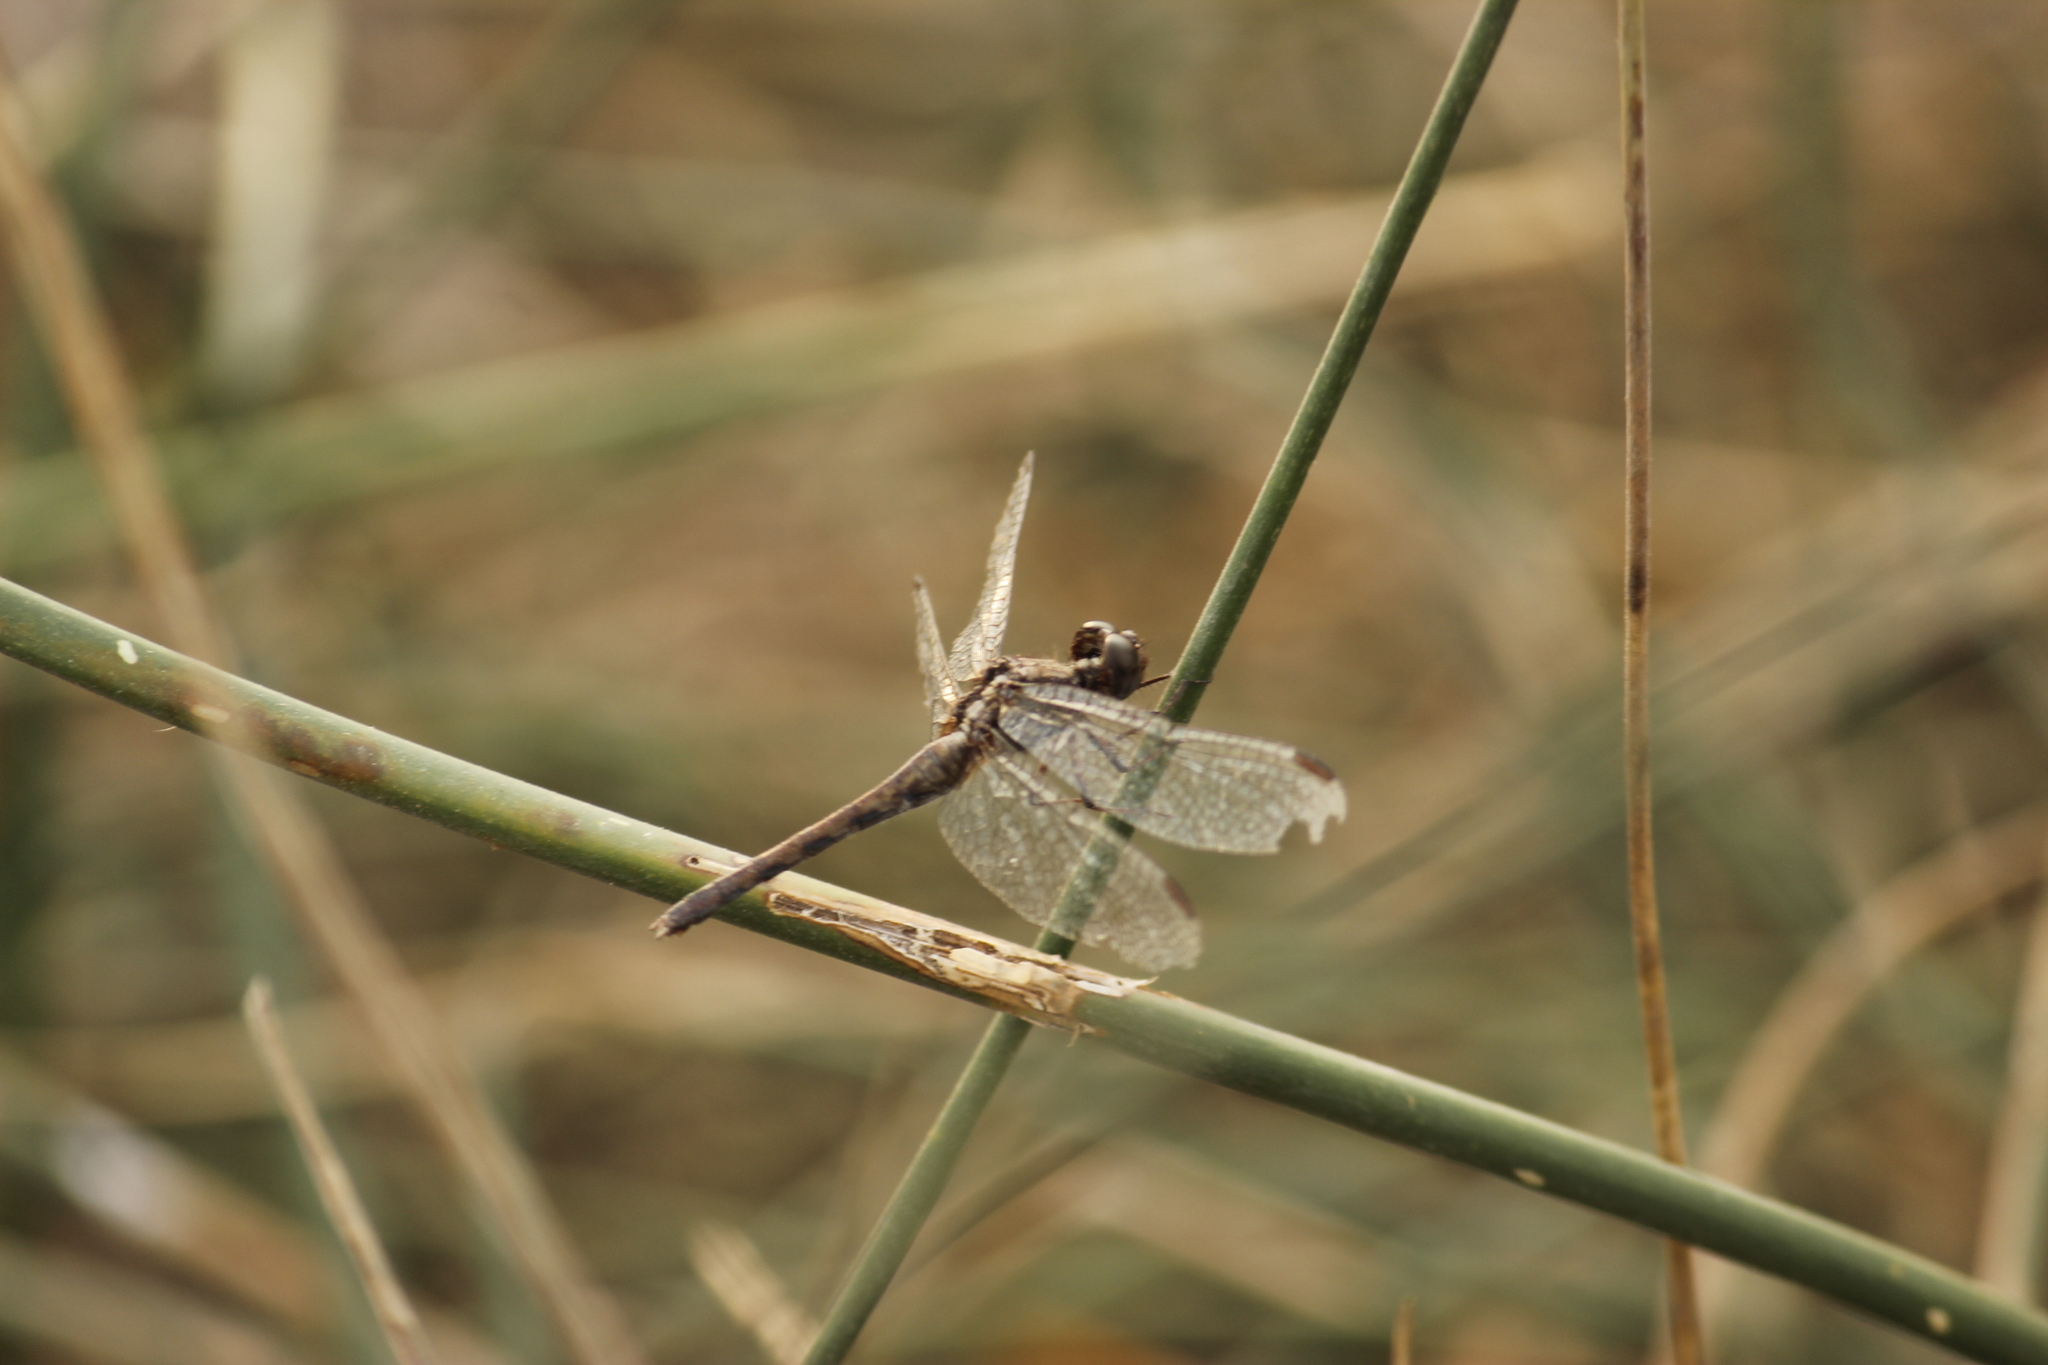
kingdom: Animalia
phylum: Arthropoda
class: Insecta
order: Odonata
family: Libellulidae
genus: Erythrodiplax
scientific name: Erythrodiplax cleopatra
